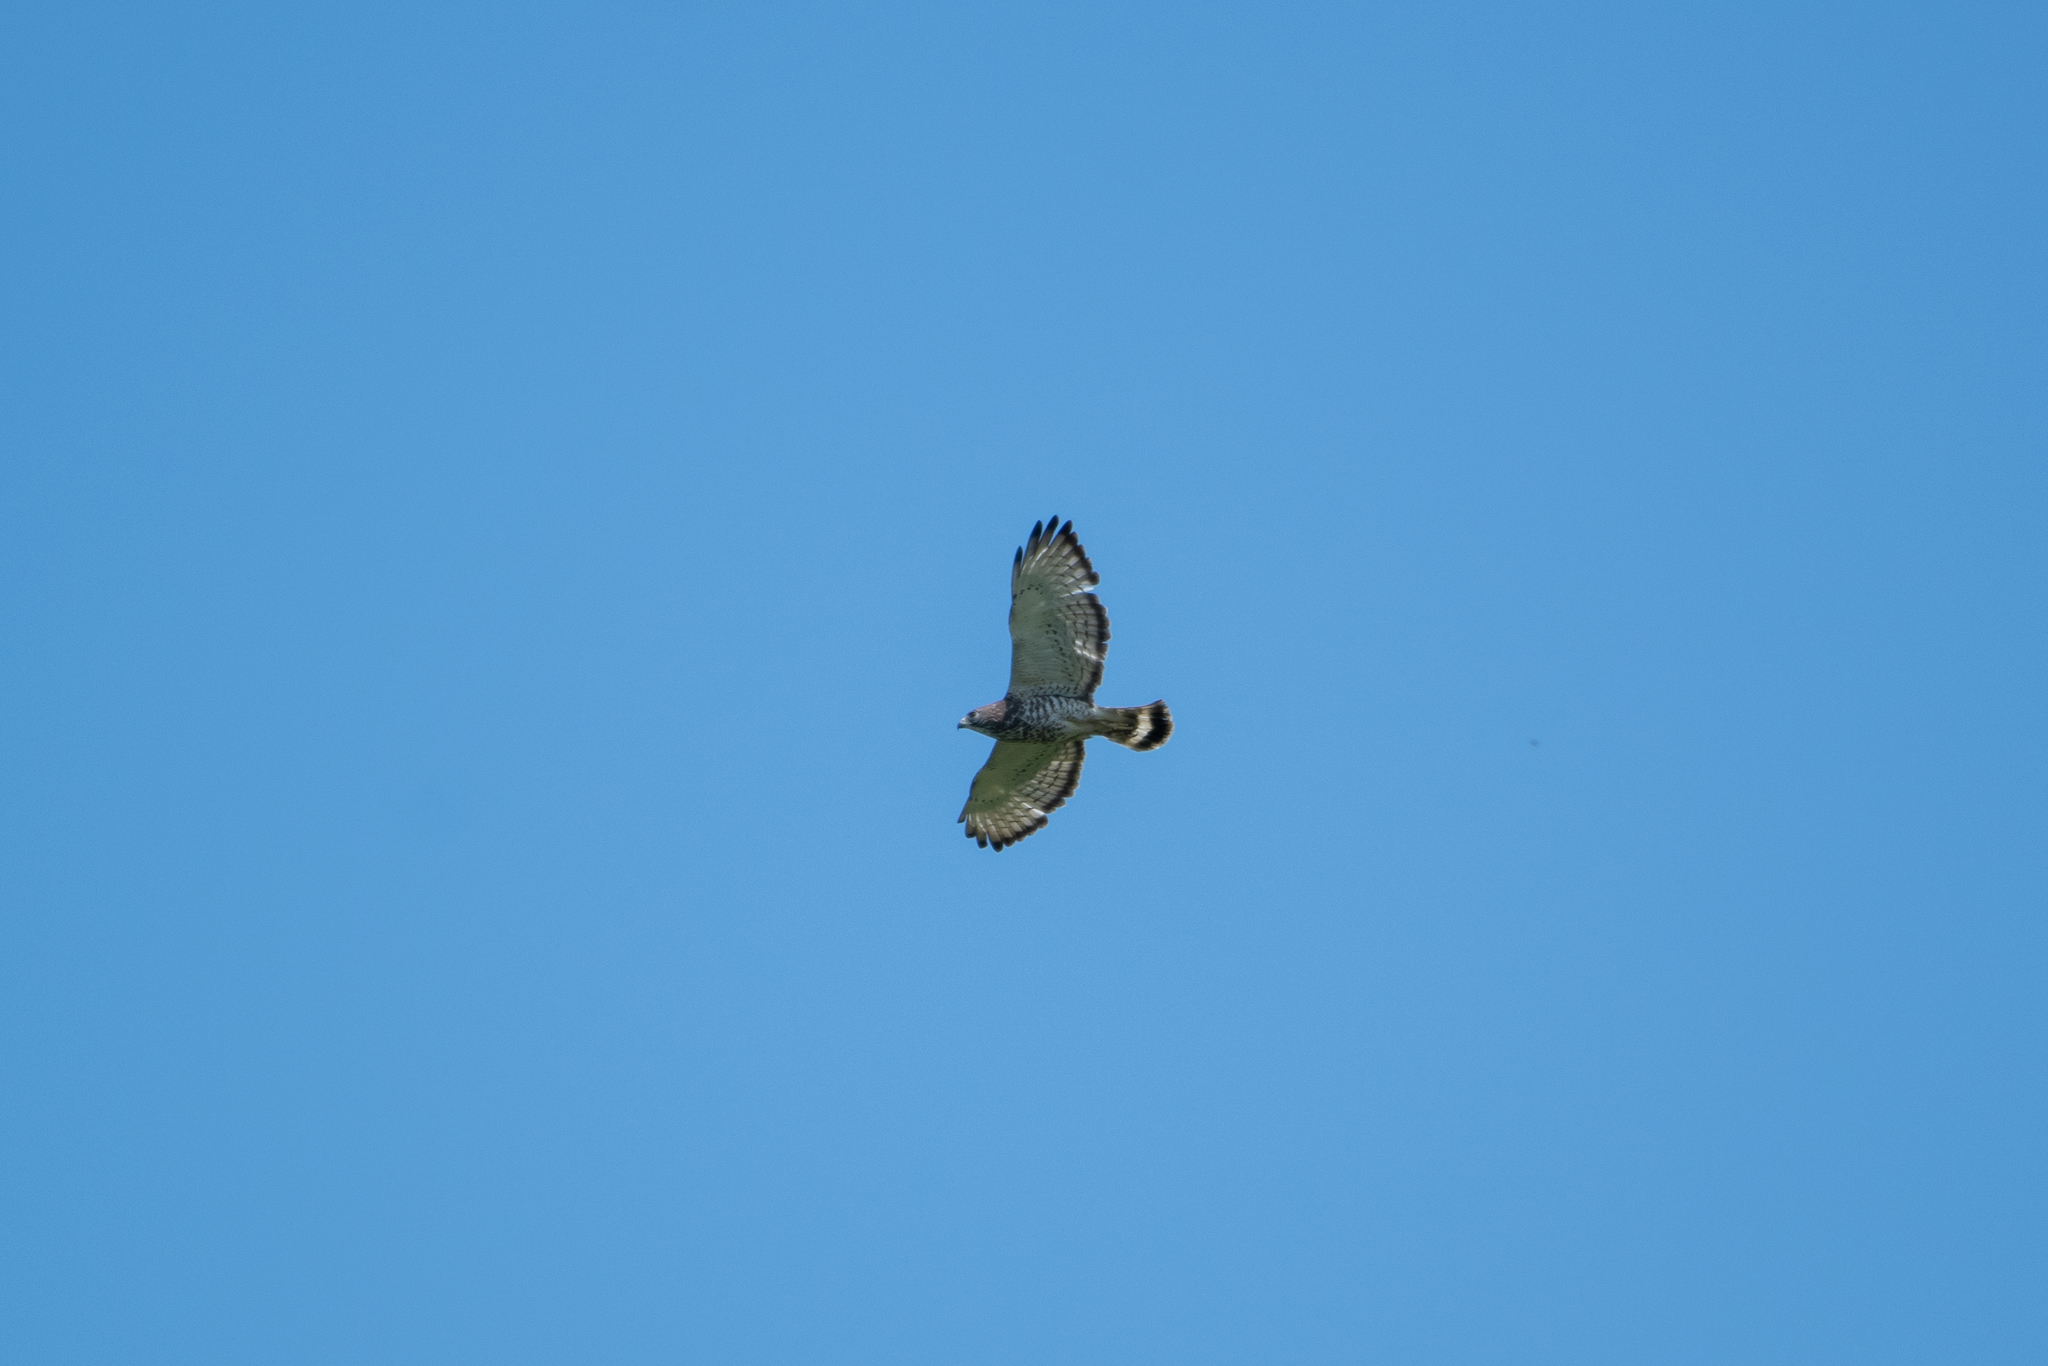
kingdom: Animalia
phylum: Chordata
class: Aves
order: Accipitriformes
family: Accipitridae
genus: Buteo
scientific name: Buteo platypterus
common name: Broad-winged hawk
